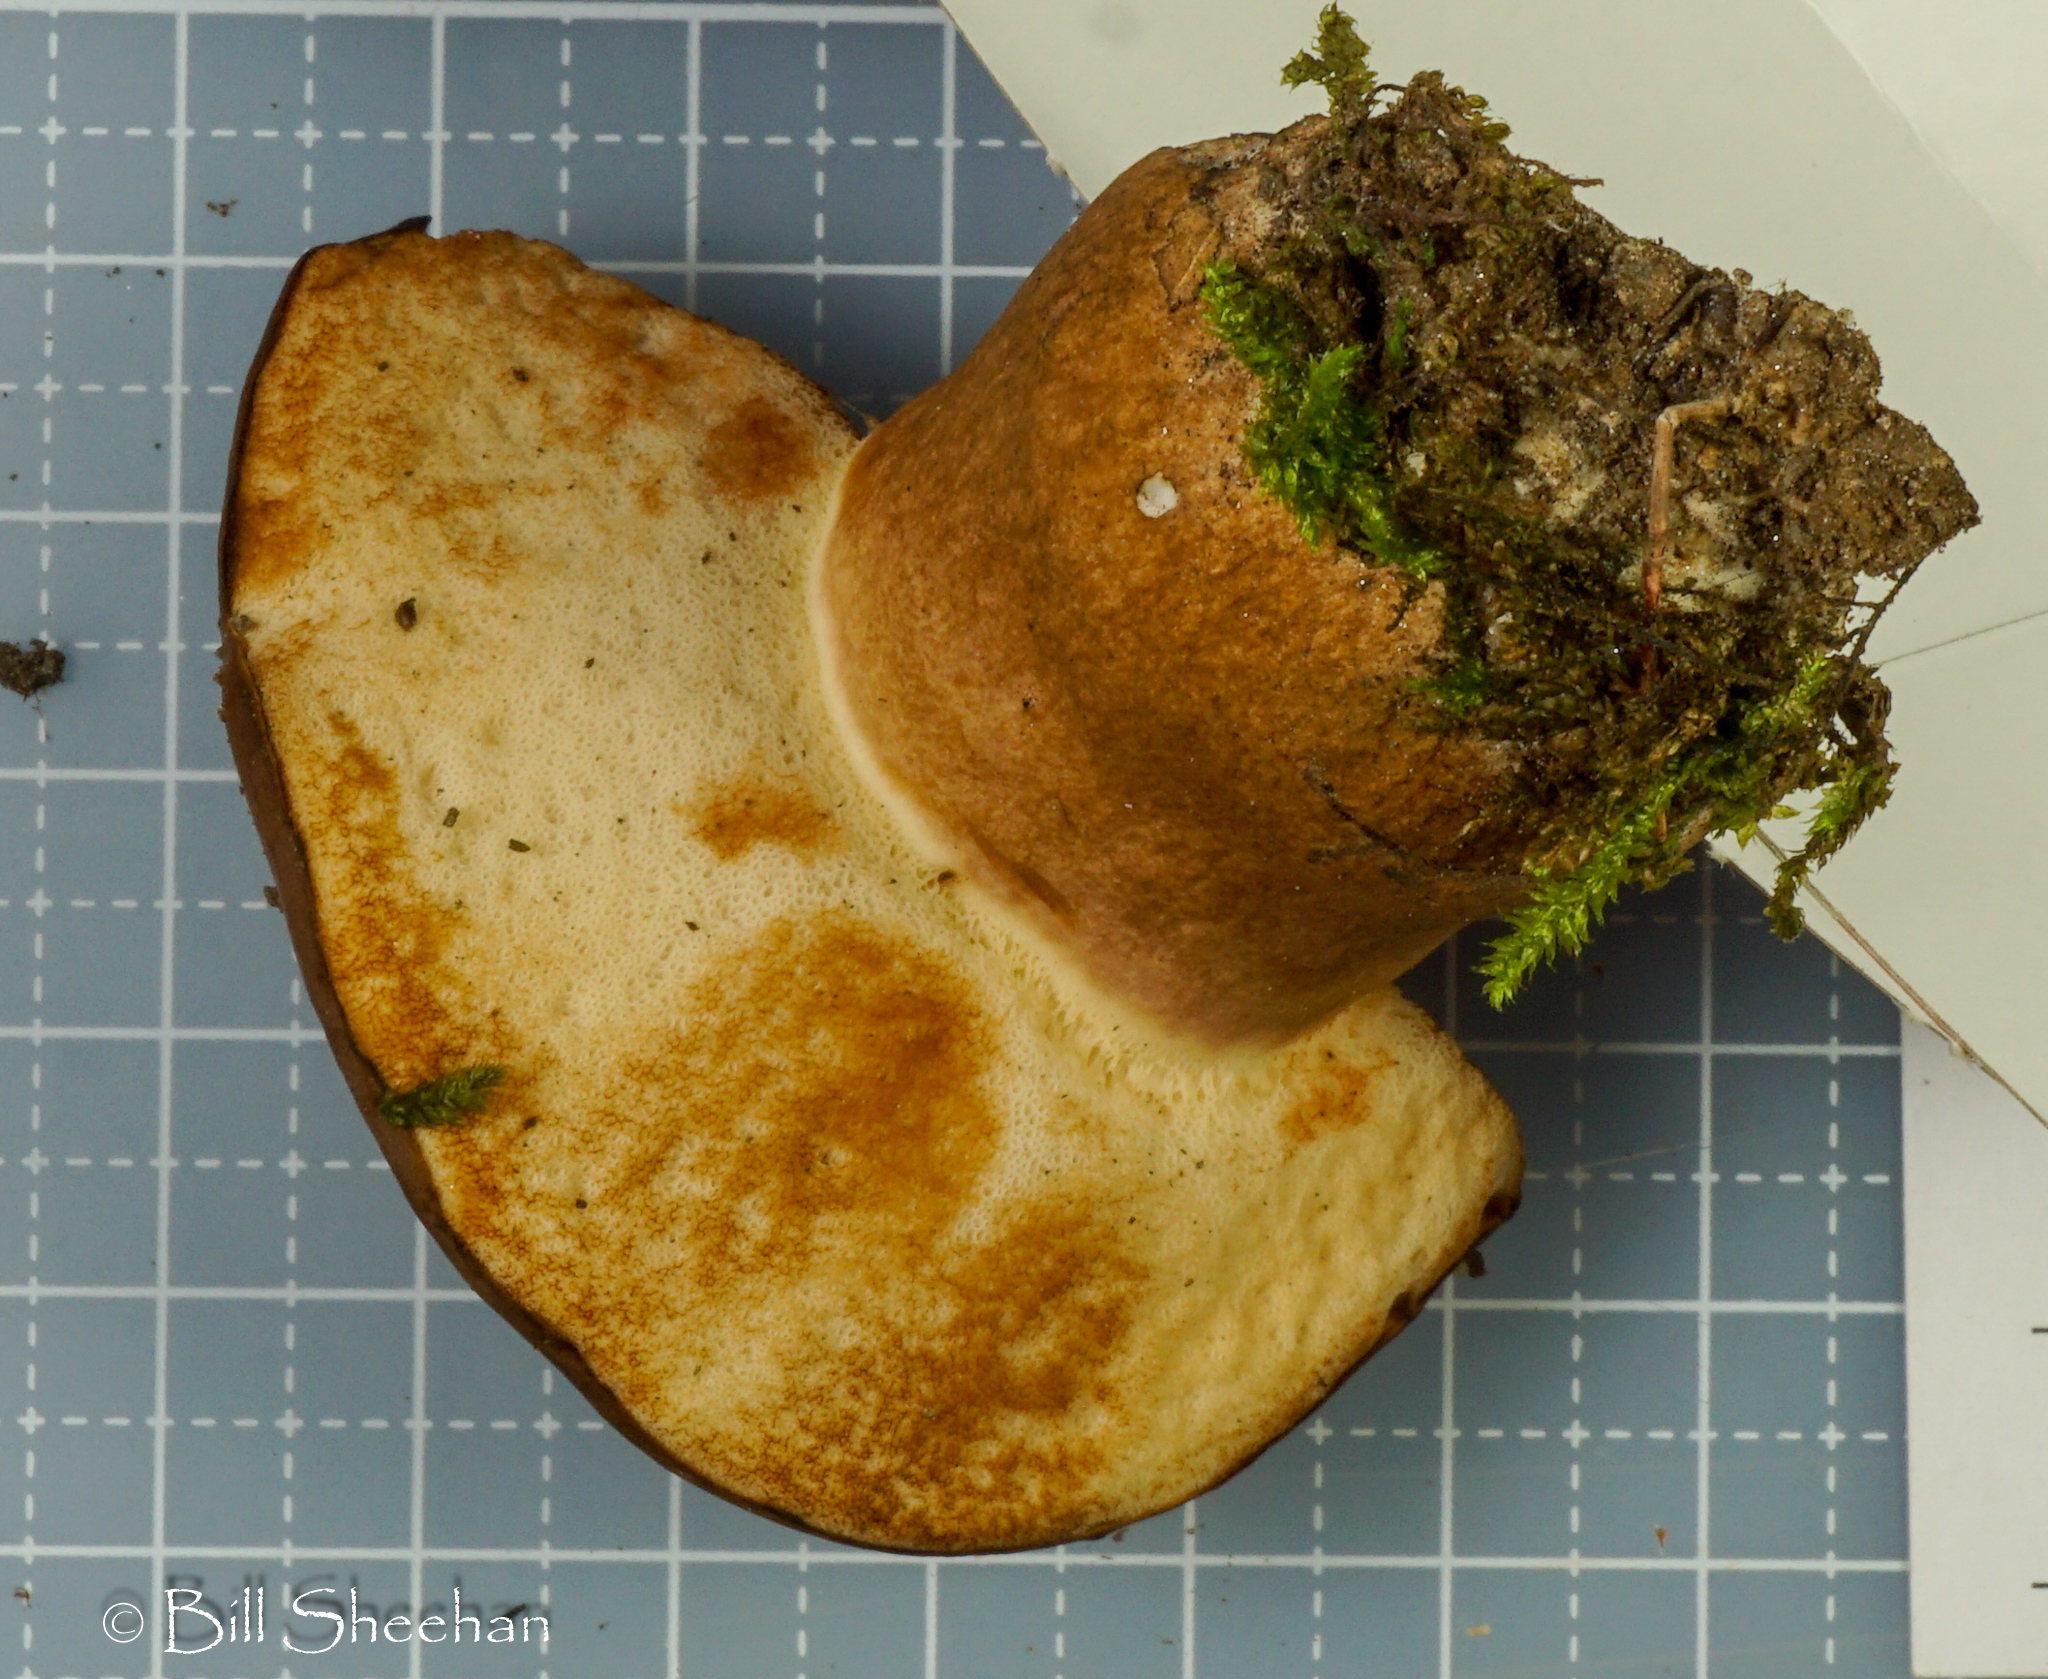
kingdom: Fungi
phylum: Basidiomycota
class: Agaricomycetes
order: Boletales
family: Boletaceae
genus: Tylopilus
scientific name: Tylopilus ferrugineus
